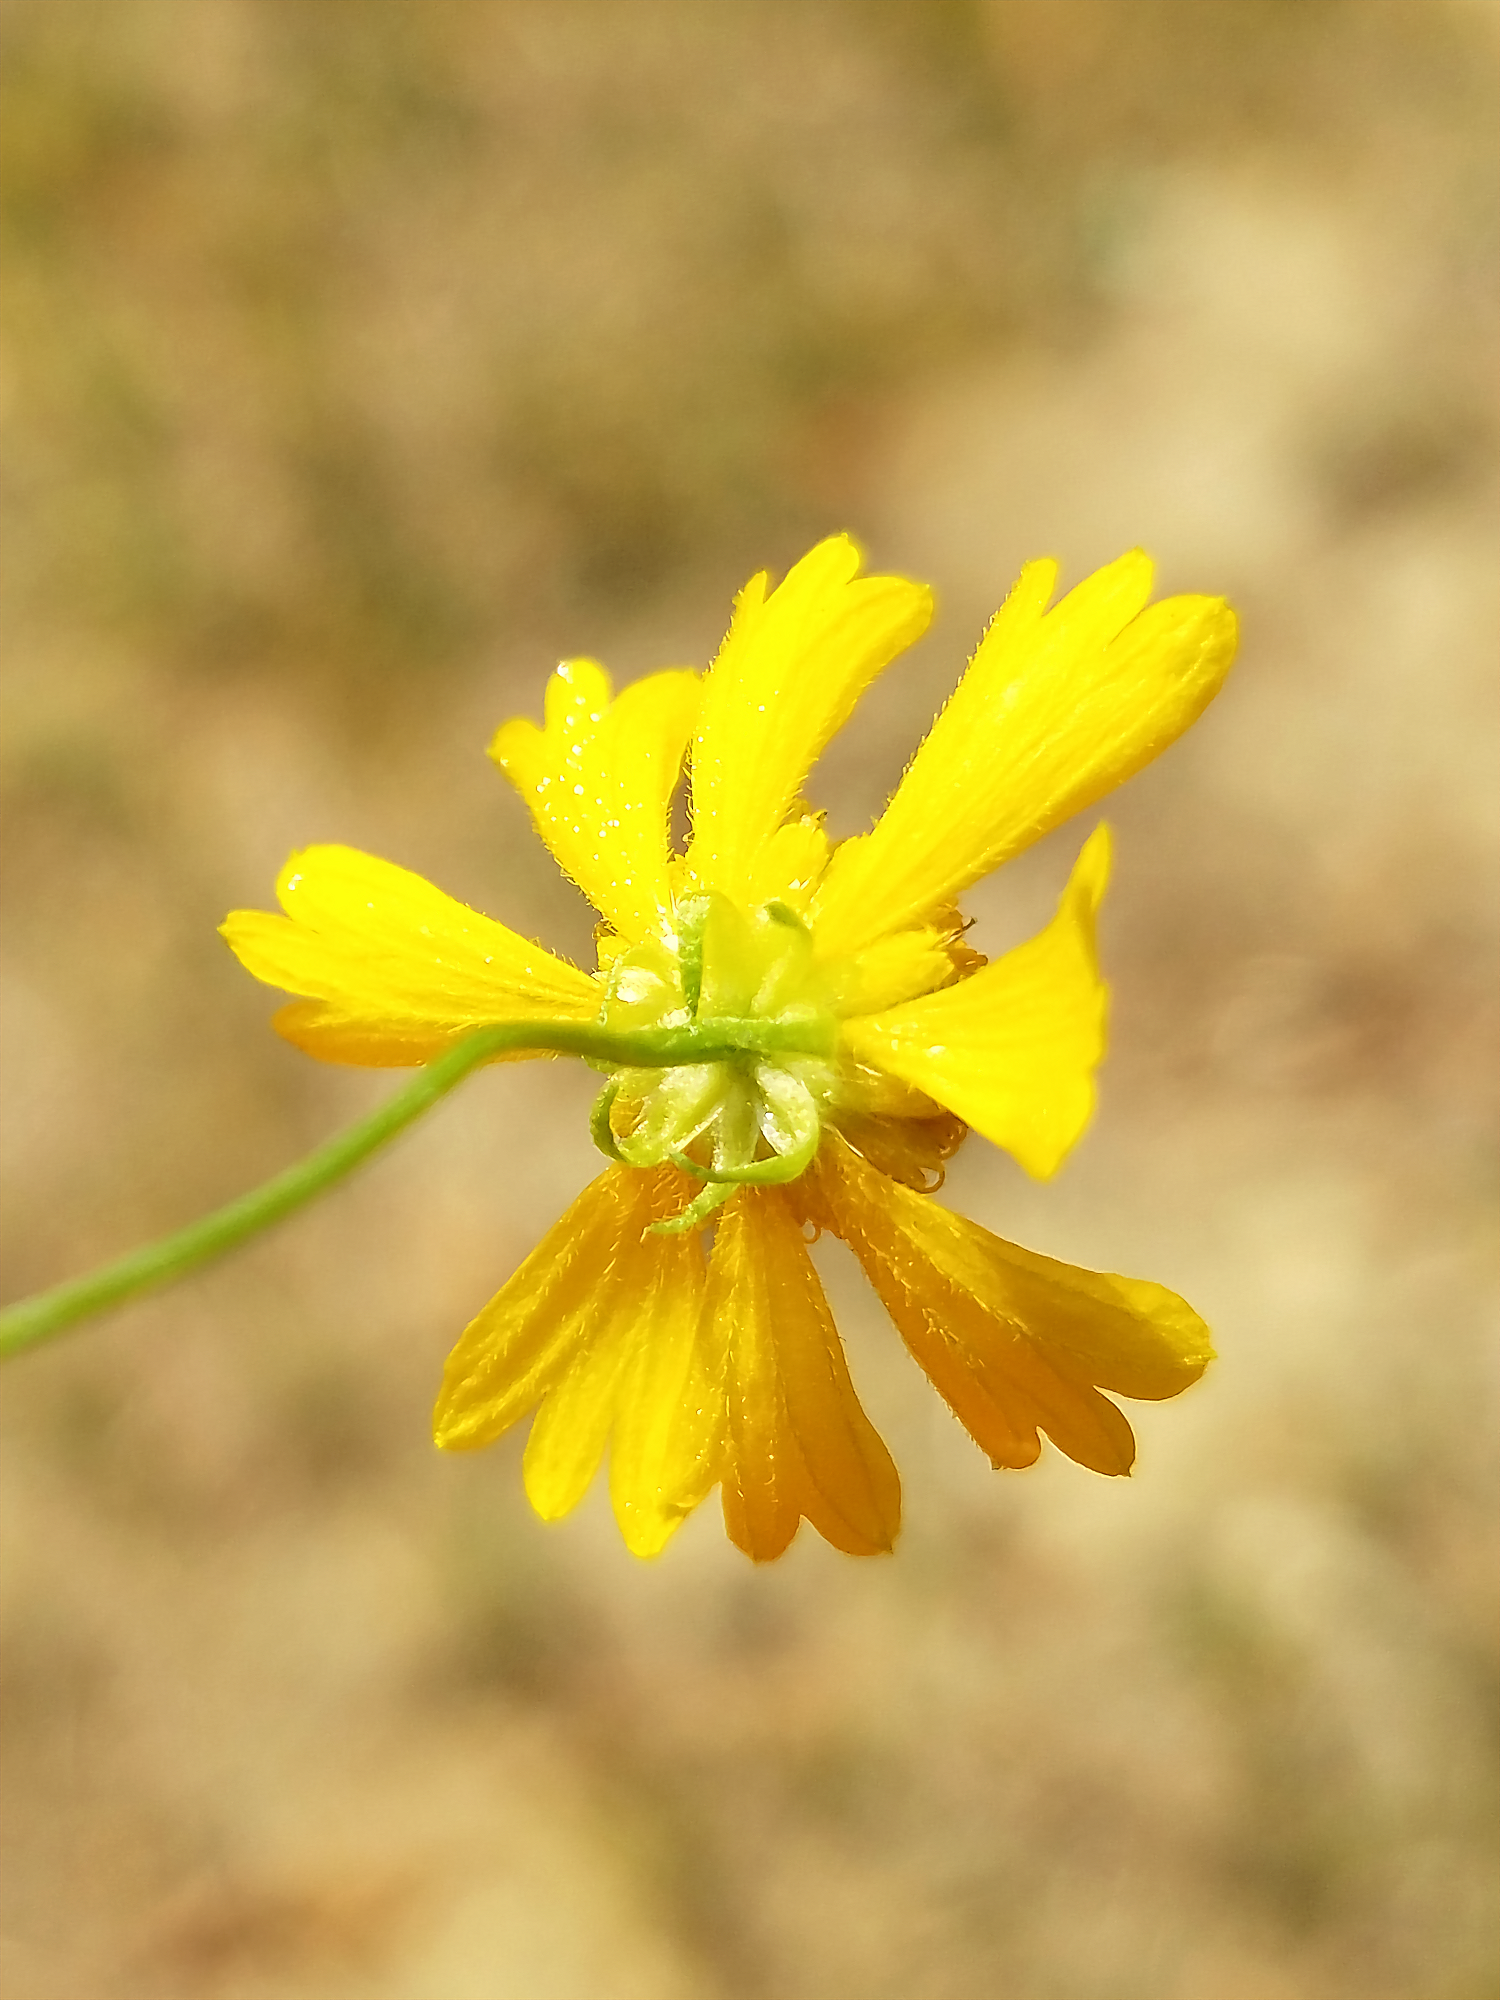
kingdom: Plantae
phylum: Tracheophyta
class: Magnoliopsida
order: Asterales
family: Asteraceae
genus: Helenium
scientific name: Helenium amarum
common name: Bitter sneezeweed
